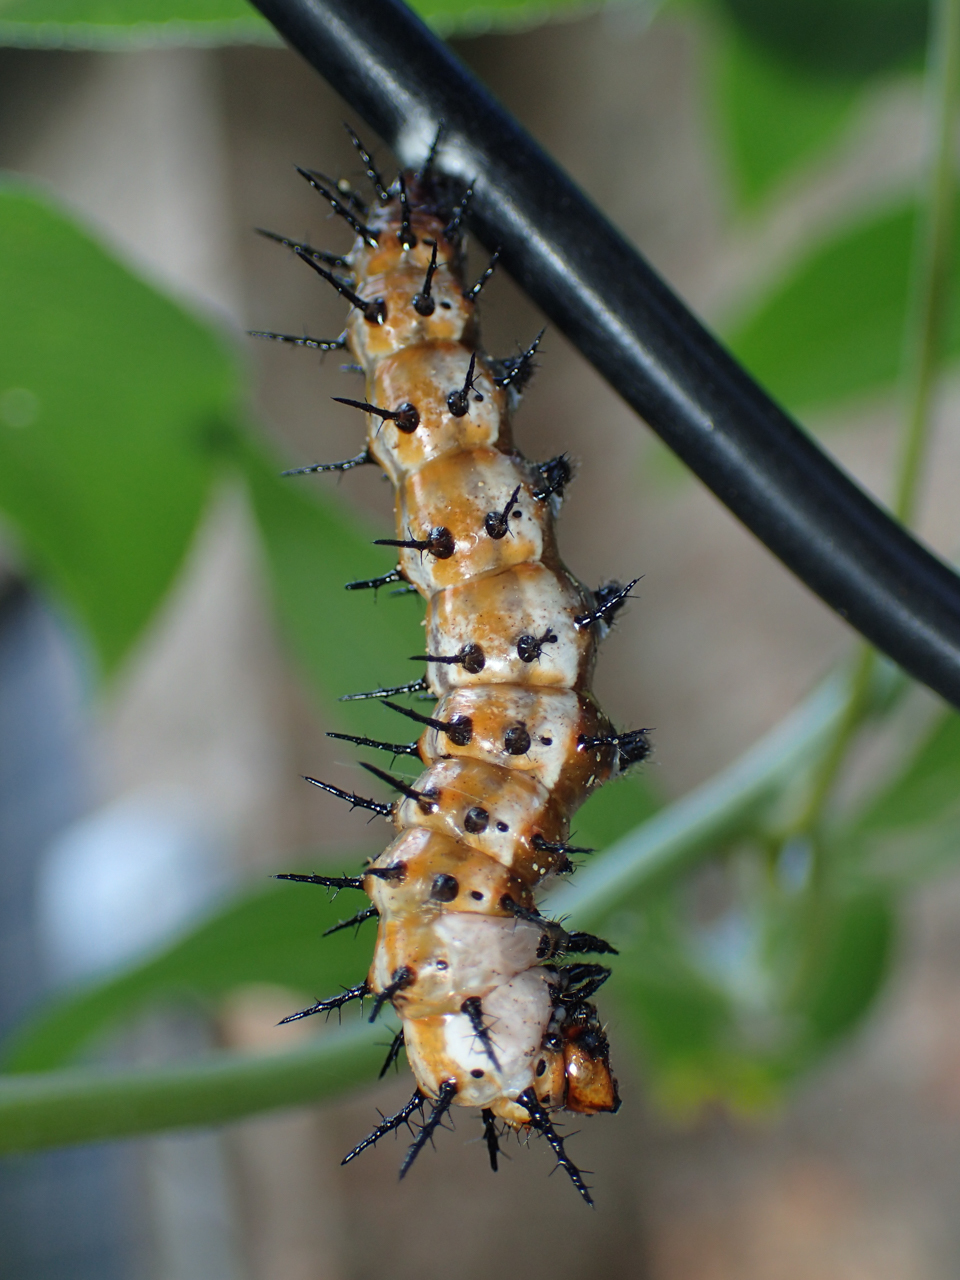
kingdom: Animalia
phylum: Arthropoda
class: Insecta
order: Lepidoptera
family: Nymphalidae
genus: Dione
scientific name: Dione vanillae
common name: Gulf fritillary
